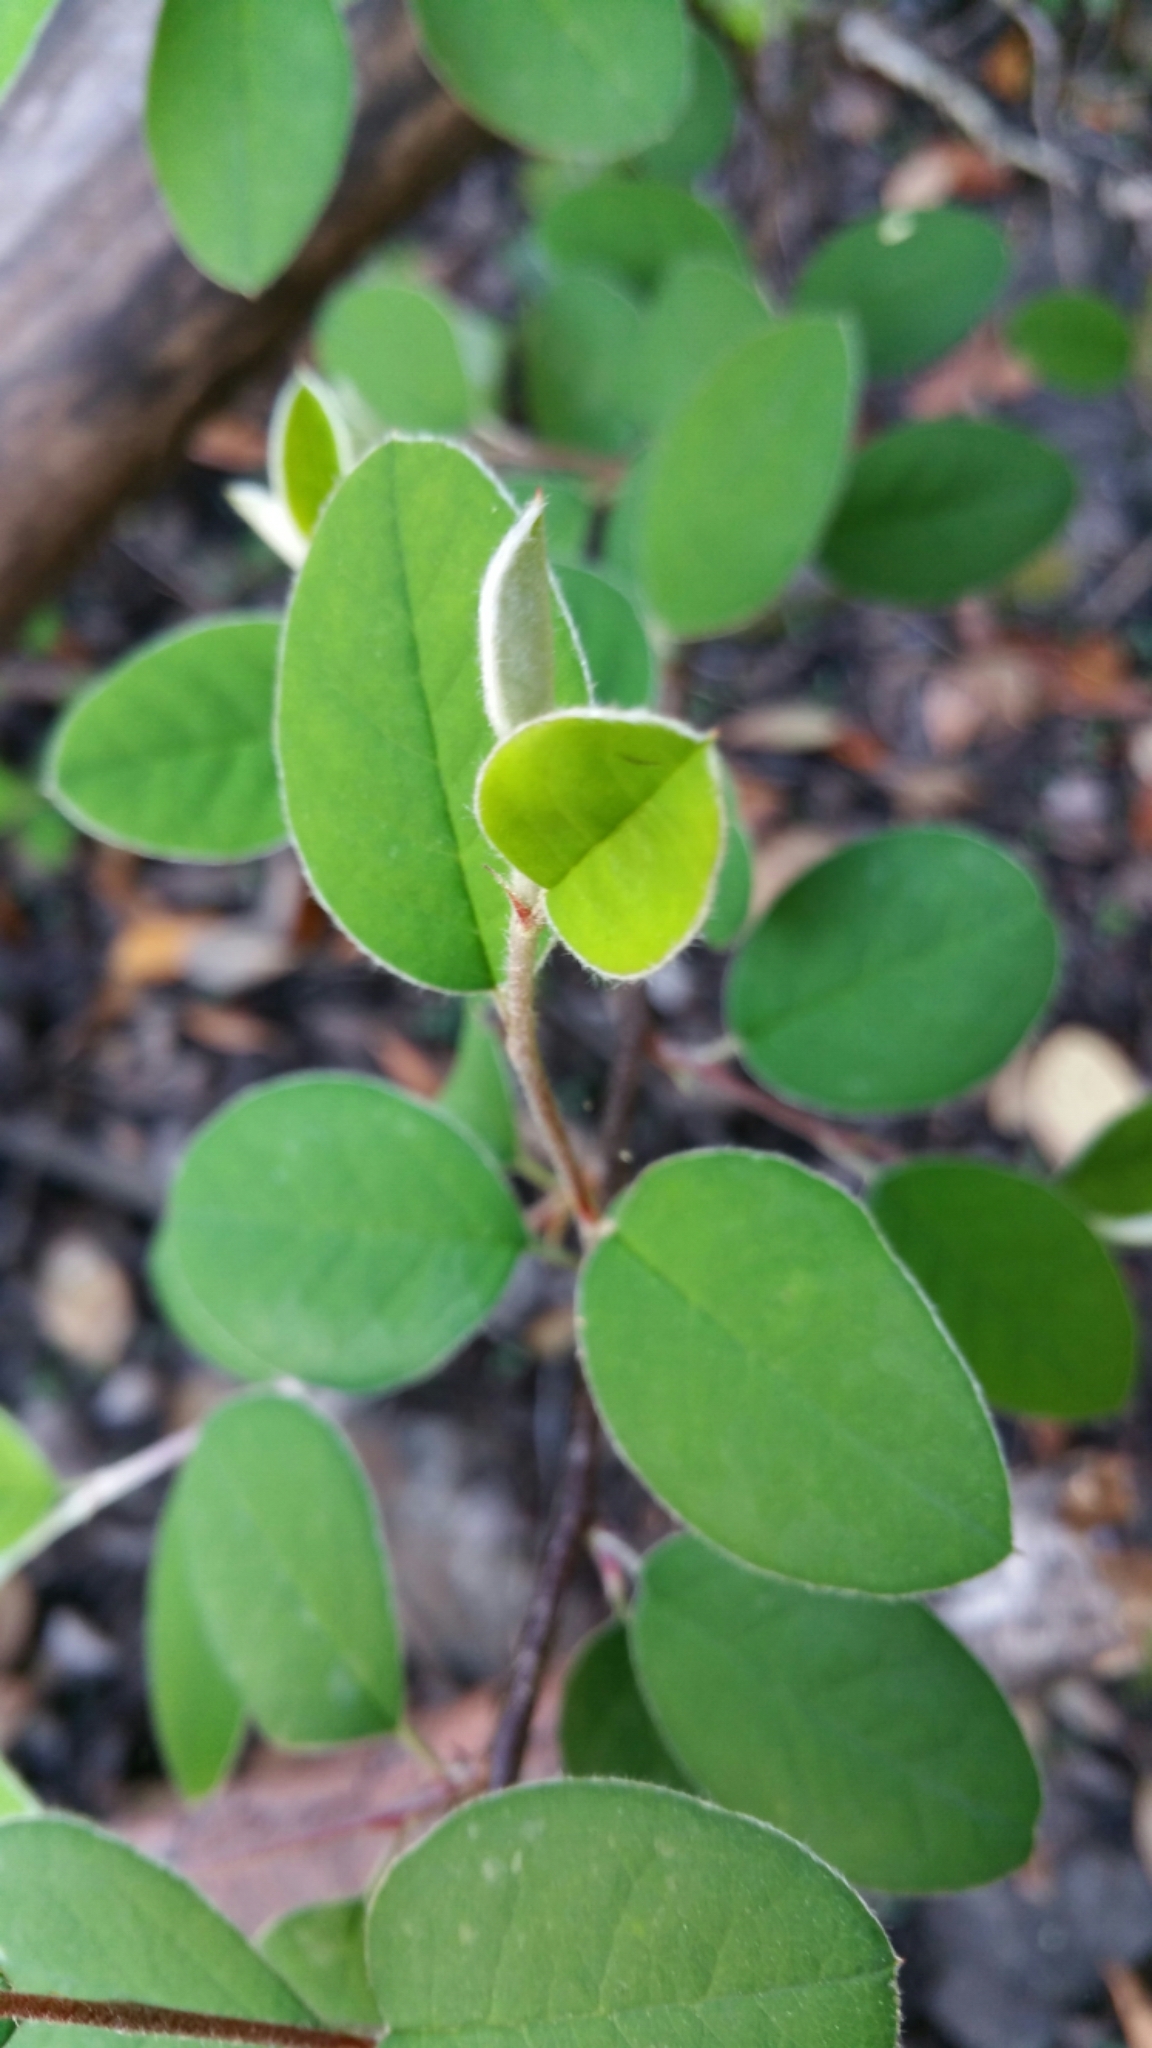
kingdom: Plantae
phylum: Tracheophyta
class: Magnoliopsida
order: Rosales
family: Rosaceae
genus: Cotoneaster
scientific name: Cotoneaster pannosus
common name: Silverleaf cotoneaster
